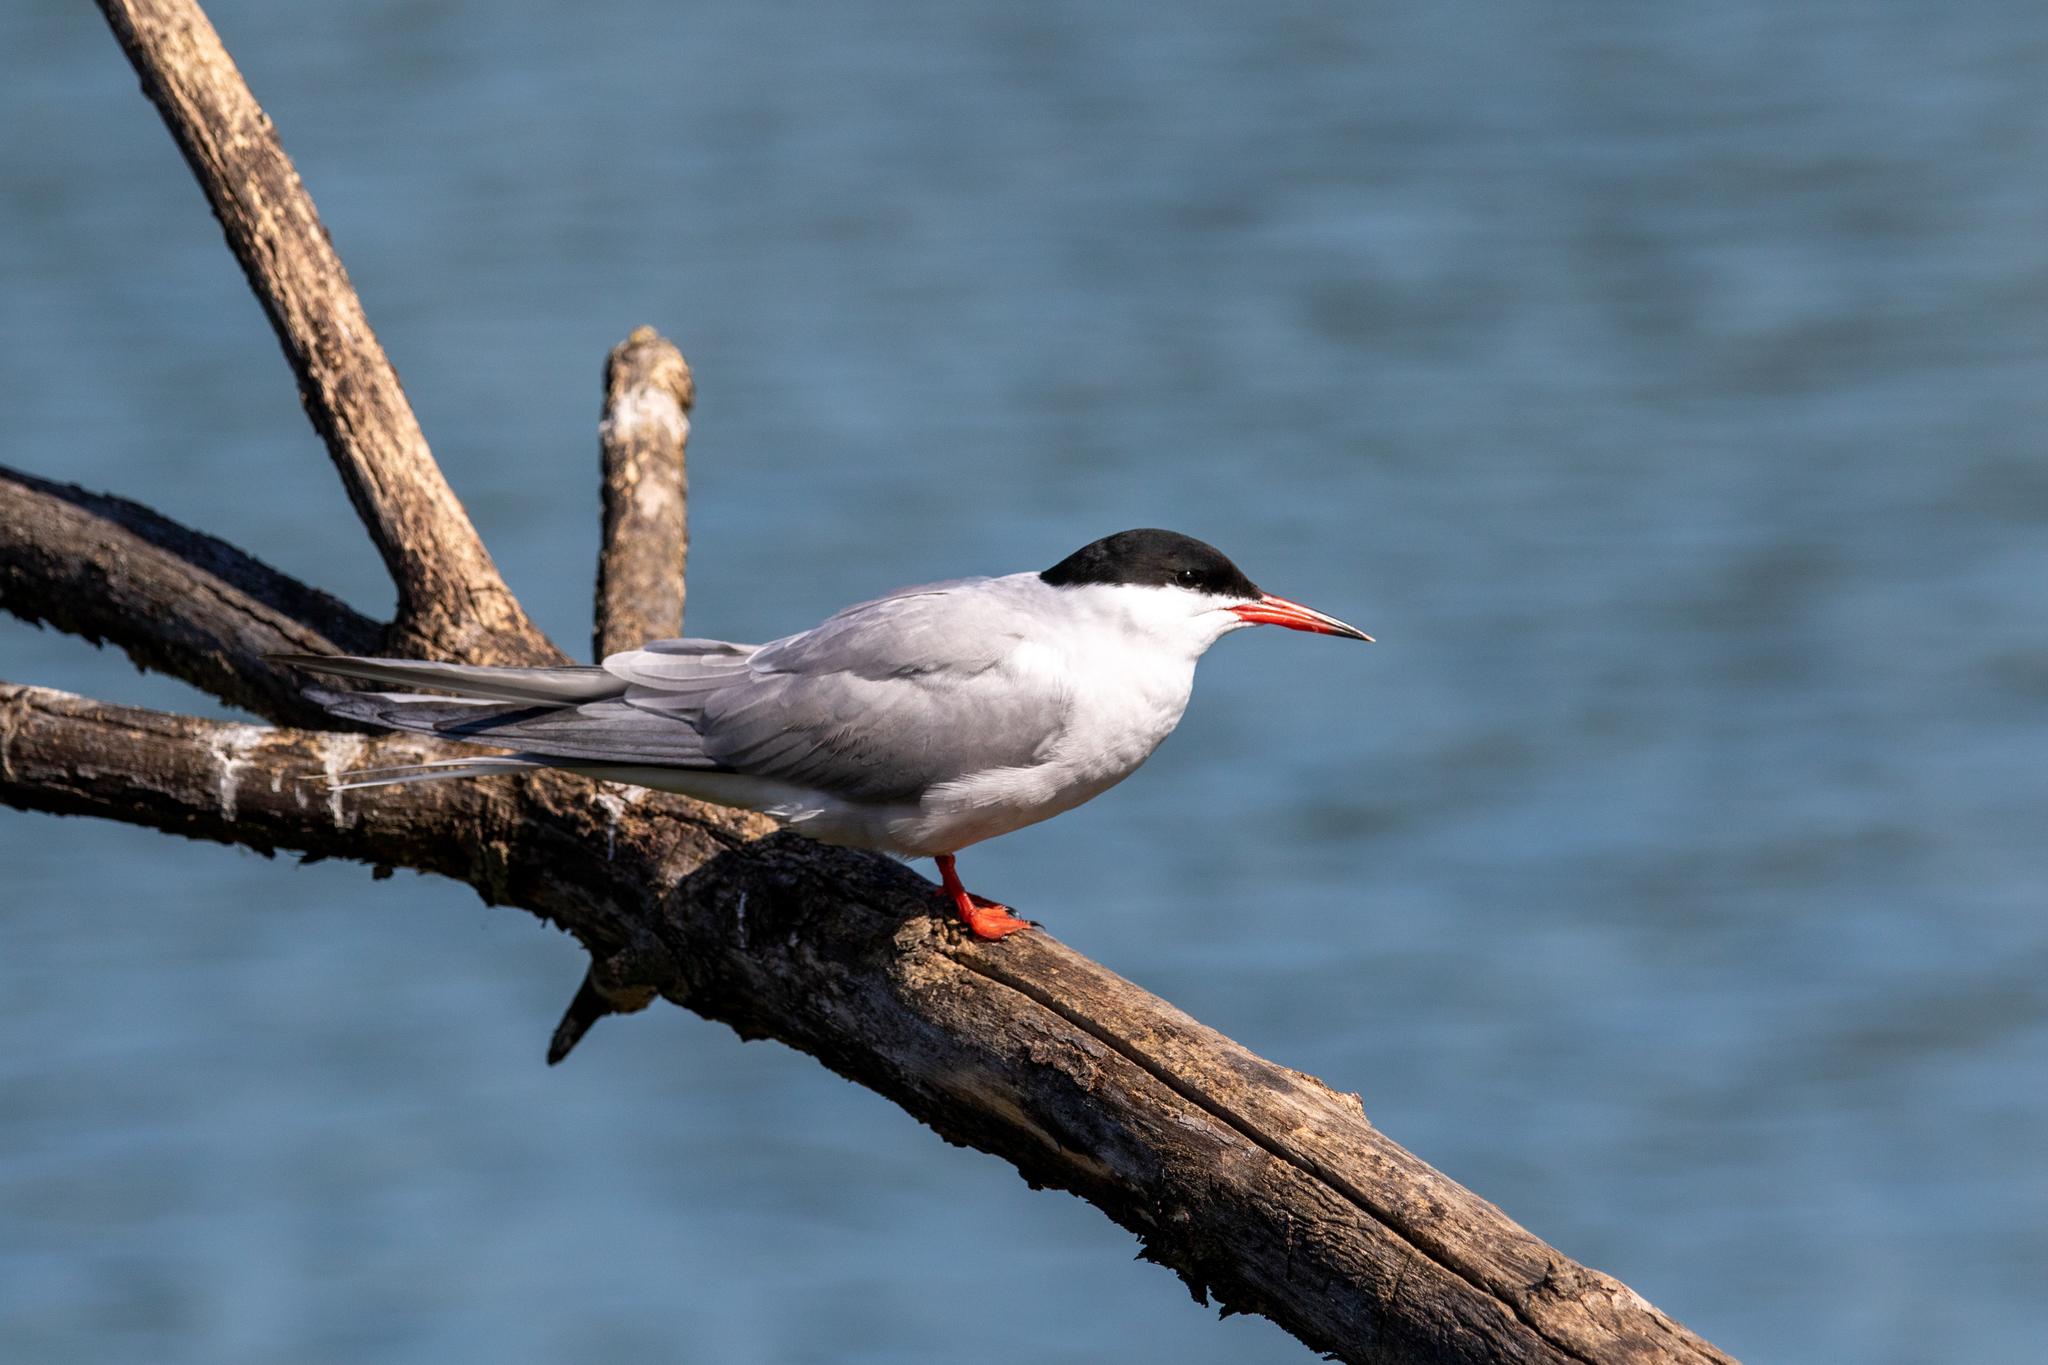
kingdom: Animalia
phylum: Chordata
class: Aves
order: Charadriiformes
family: Laridae
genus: Sterna
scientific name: Sterna hirundo
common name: Common tern
